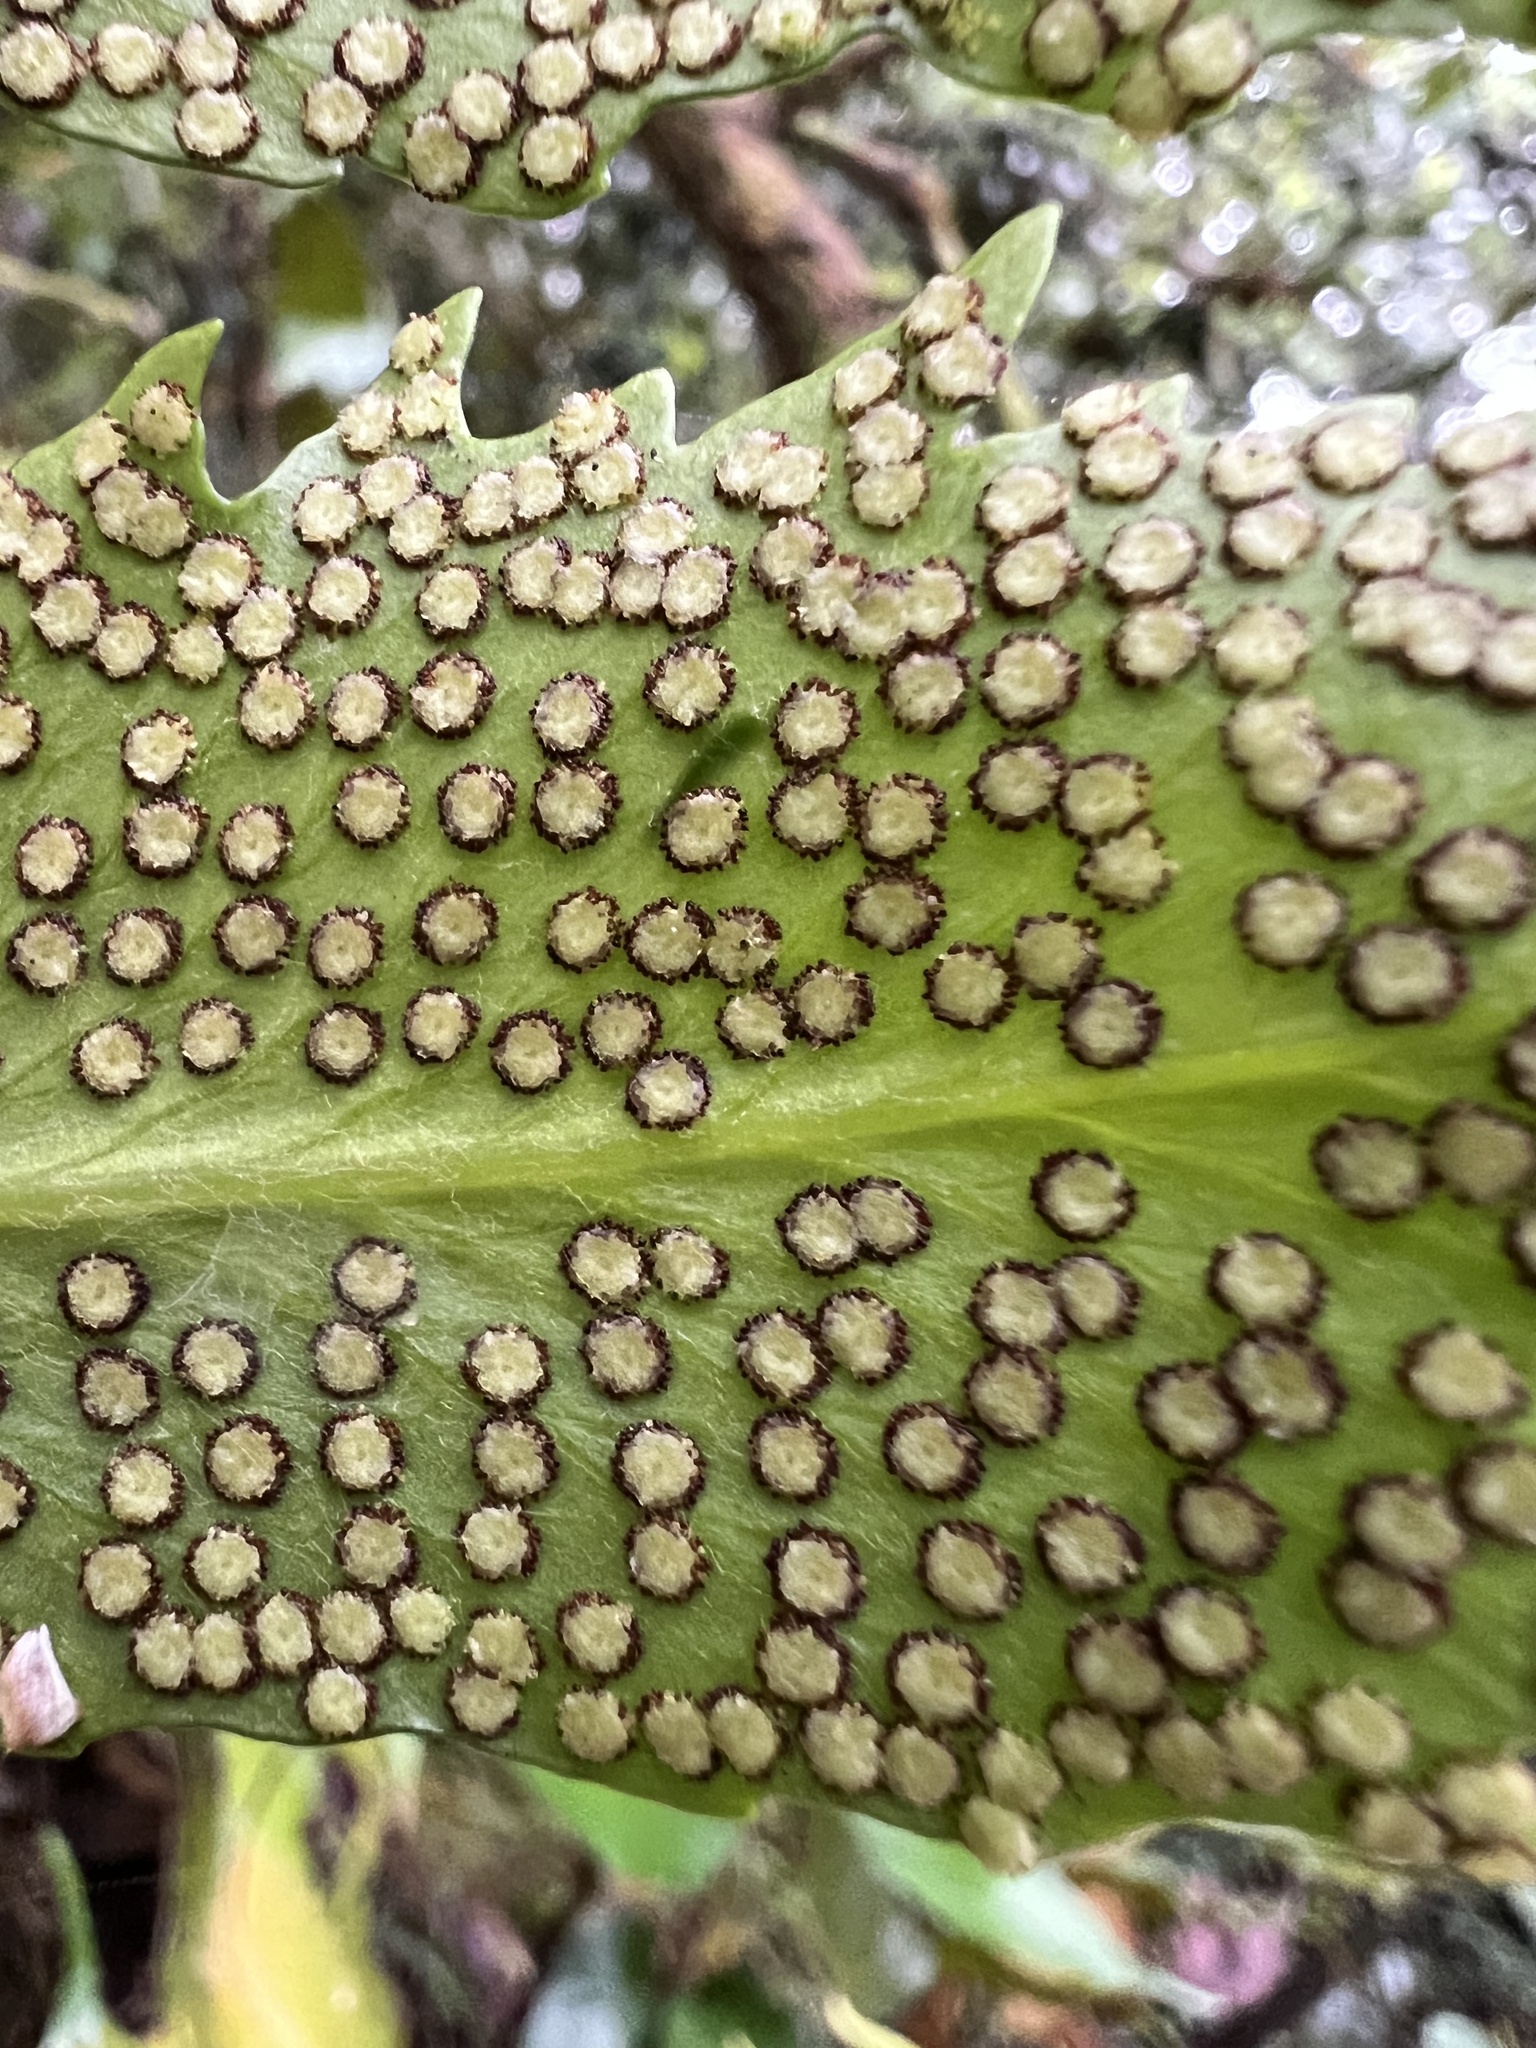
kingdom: Plantae
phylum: Tracheophyta
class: Polypodiopsida
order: Polypodiales
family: Dryopteridaceae
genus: Cyrtomium
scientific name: Cyrtomium falcatum
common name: House holly-fern
